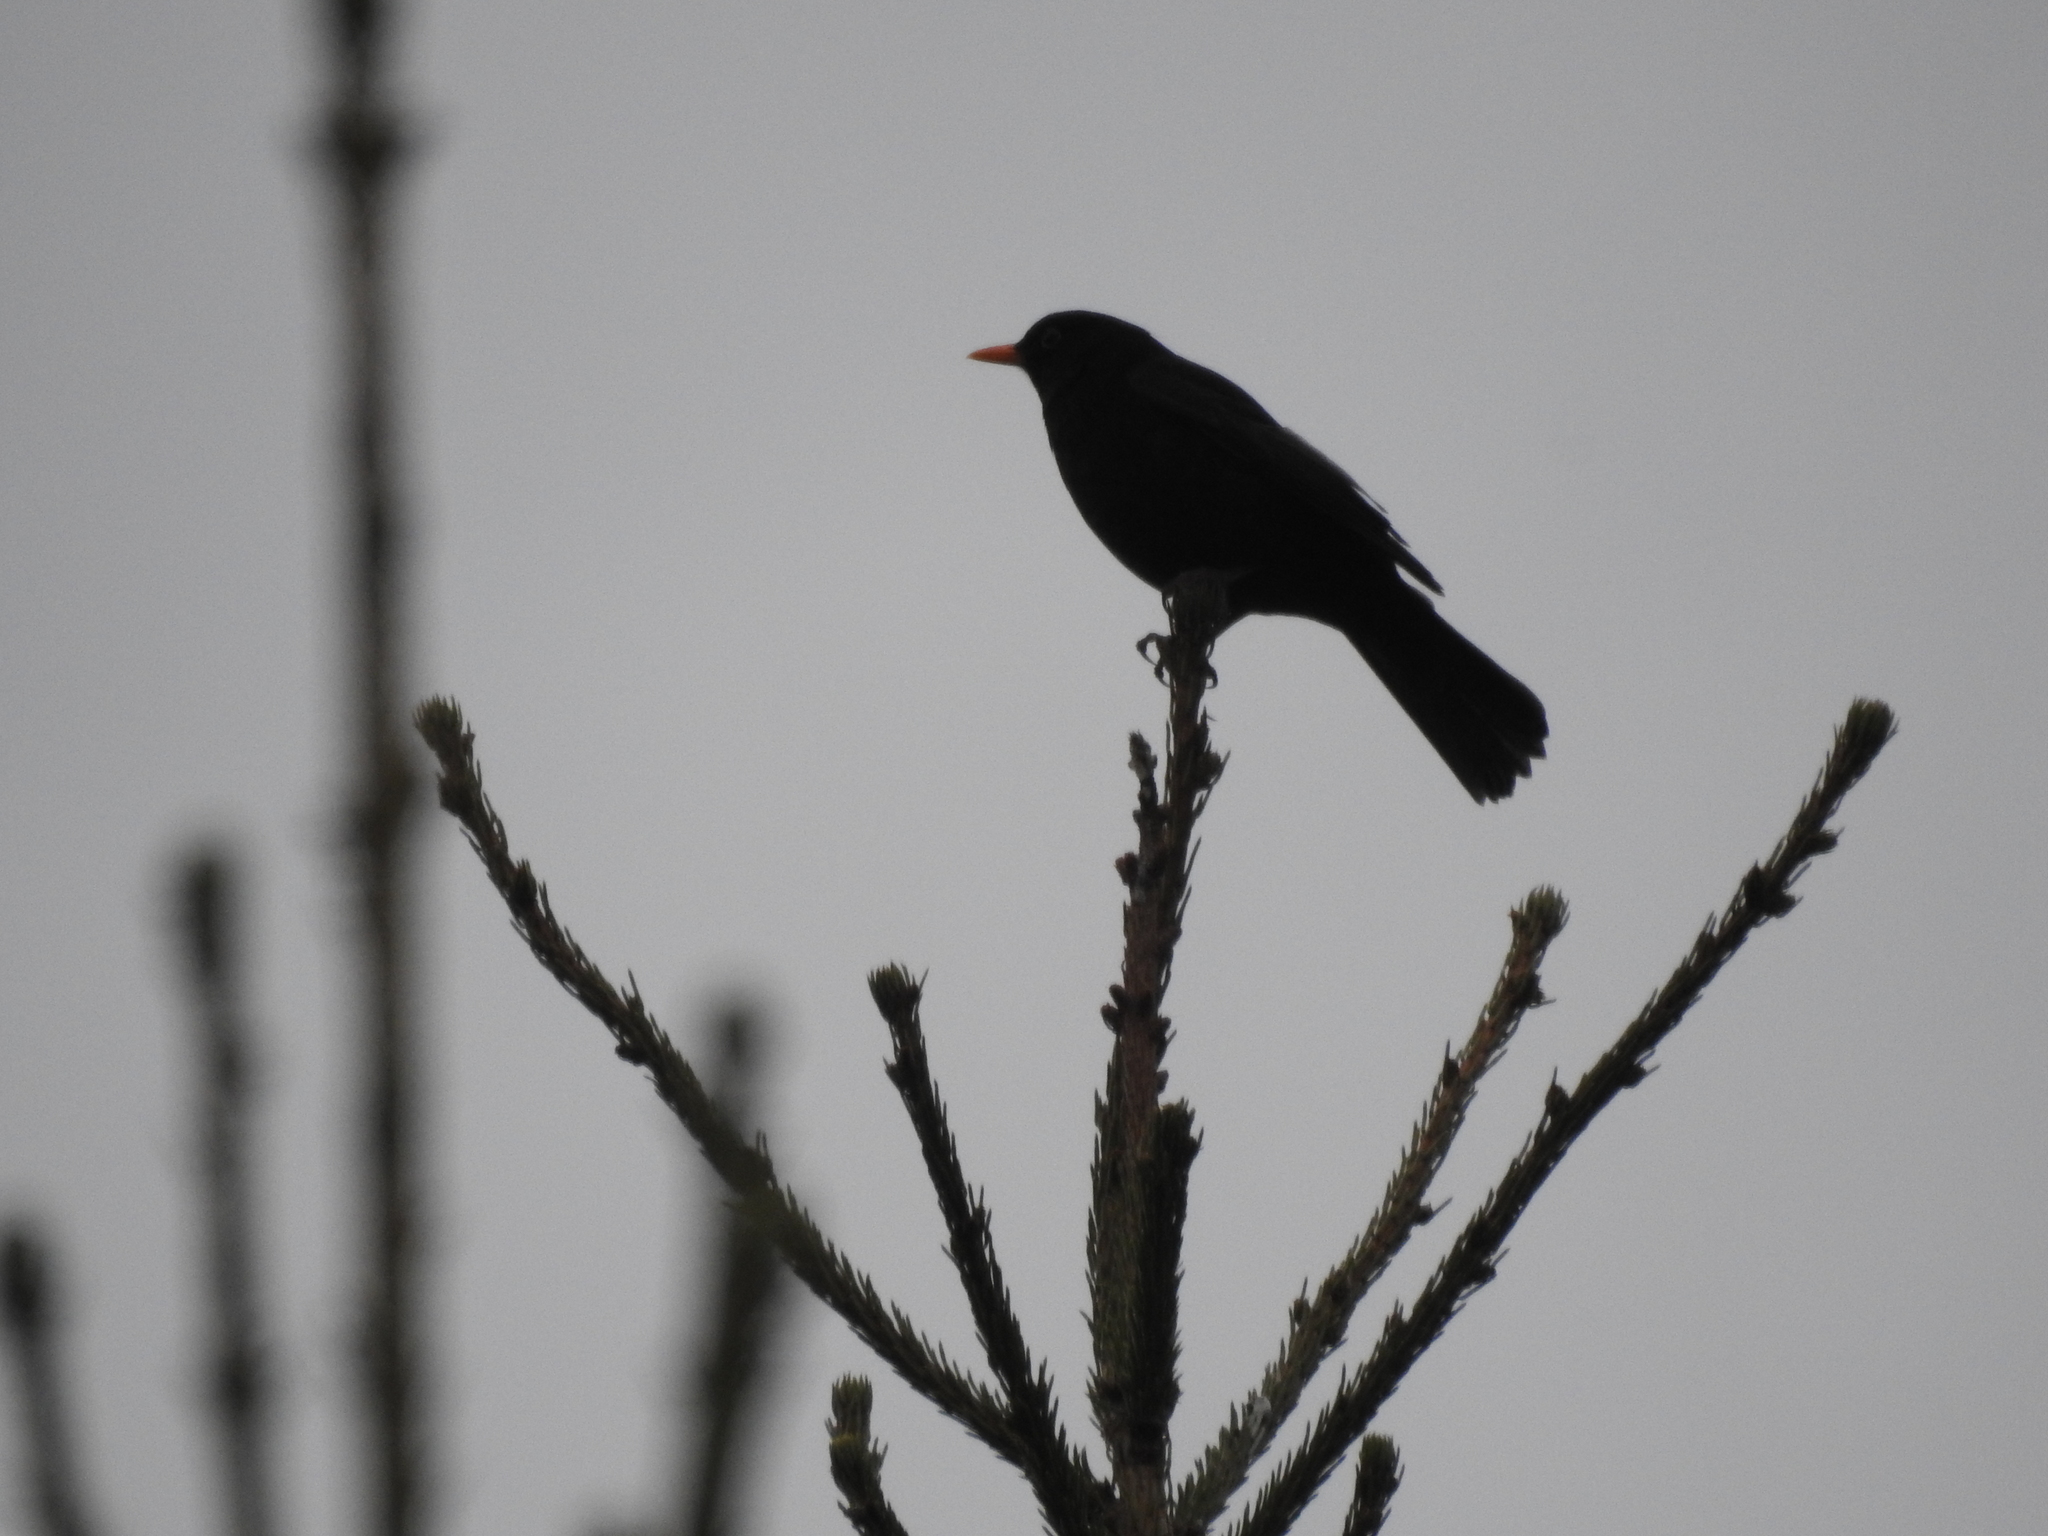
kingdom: Animalia
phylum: Chordata
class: Aves
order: Passeriformes
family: Turdidae
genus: Turdus
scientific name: Turdus merula
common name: Common blackbird
